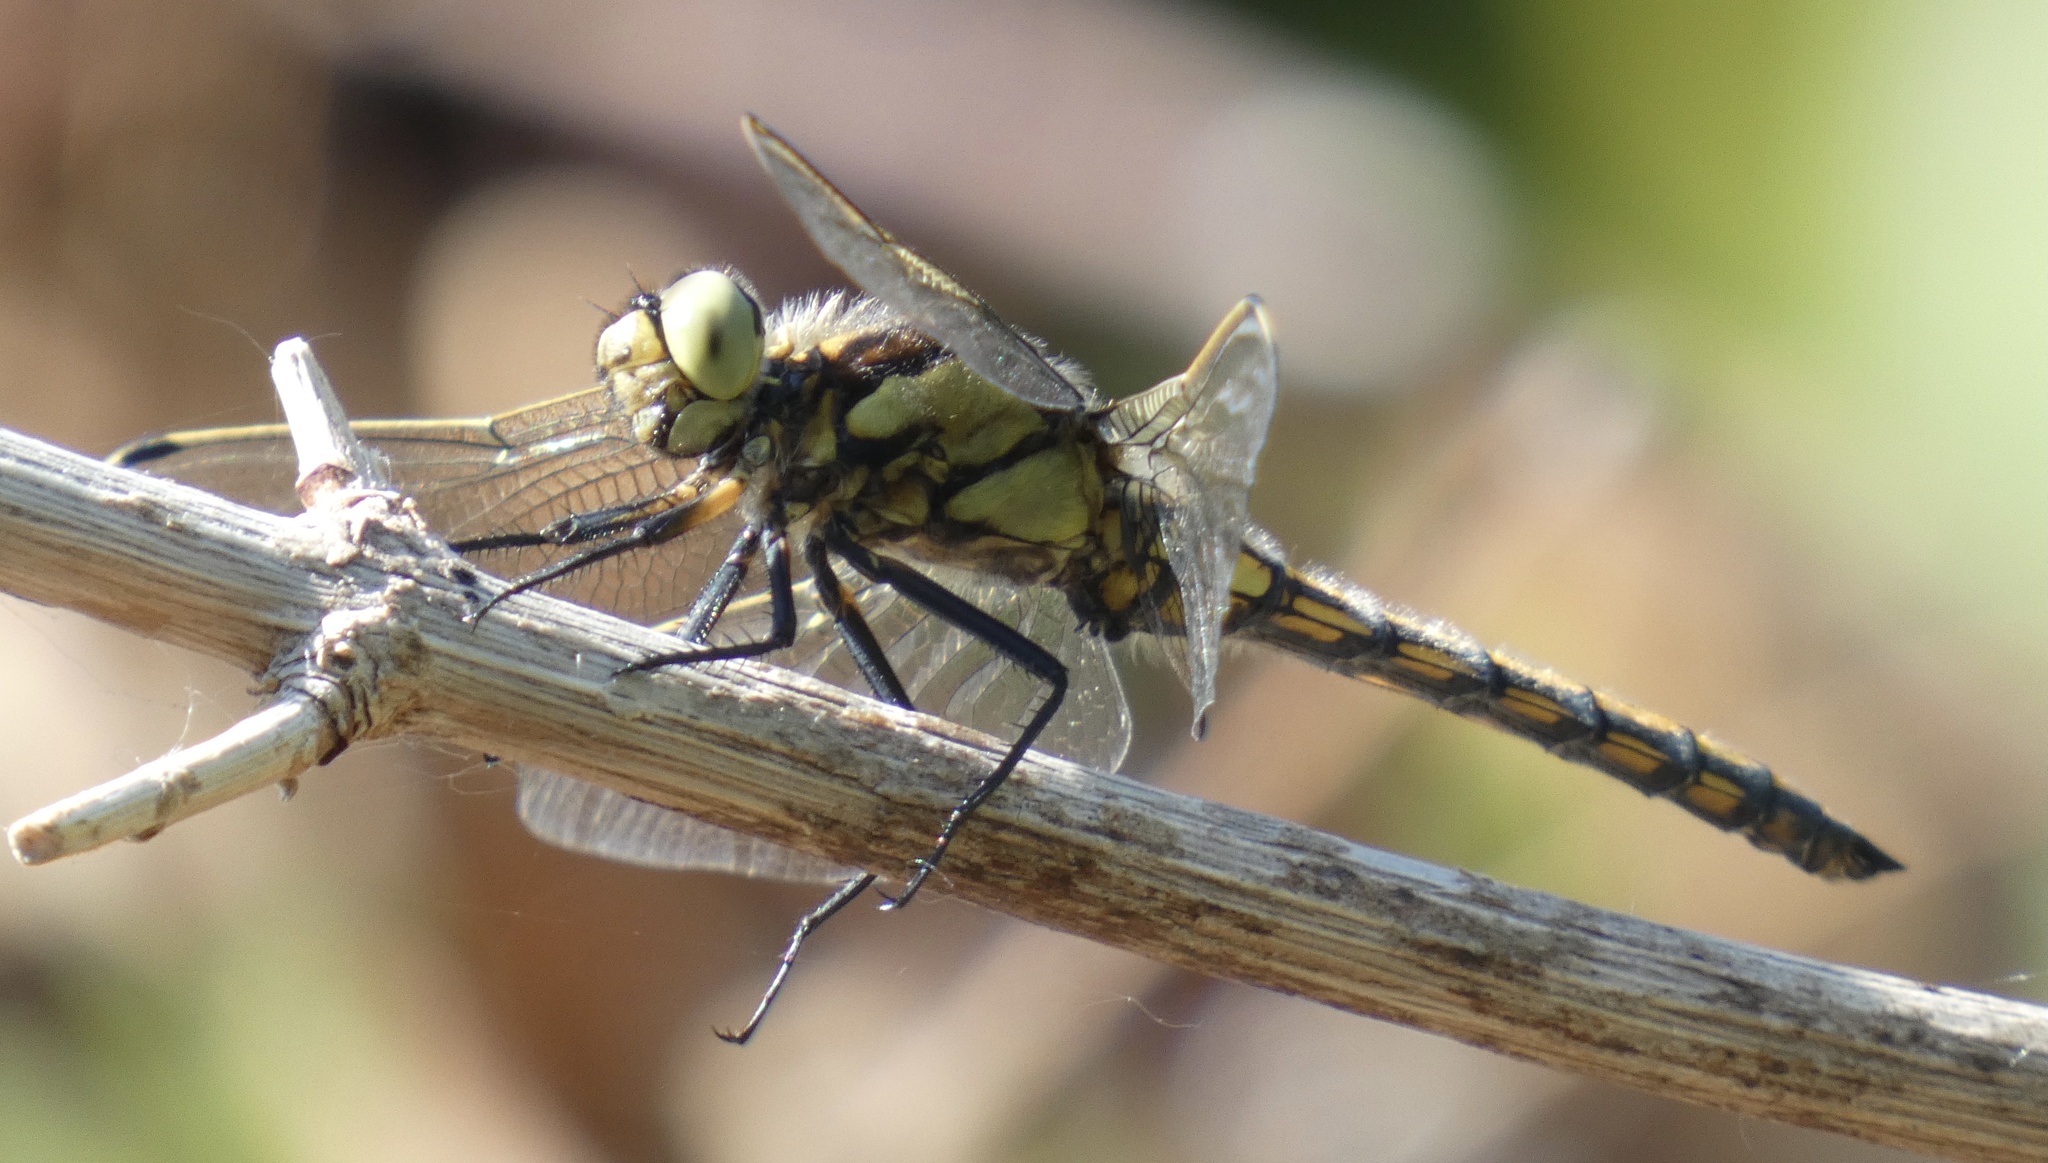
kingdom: Animalia
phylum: Arthropoda
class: Insecta
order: Odonata
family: Libellulidae
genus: Orthetrum
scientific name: Orthetrum cancellatum
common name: Black-tailed skimmer
